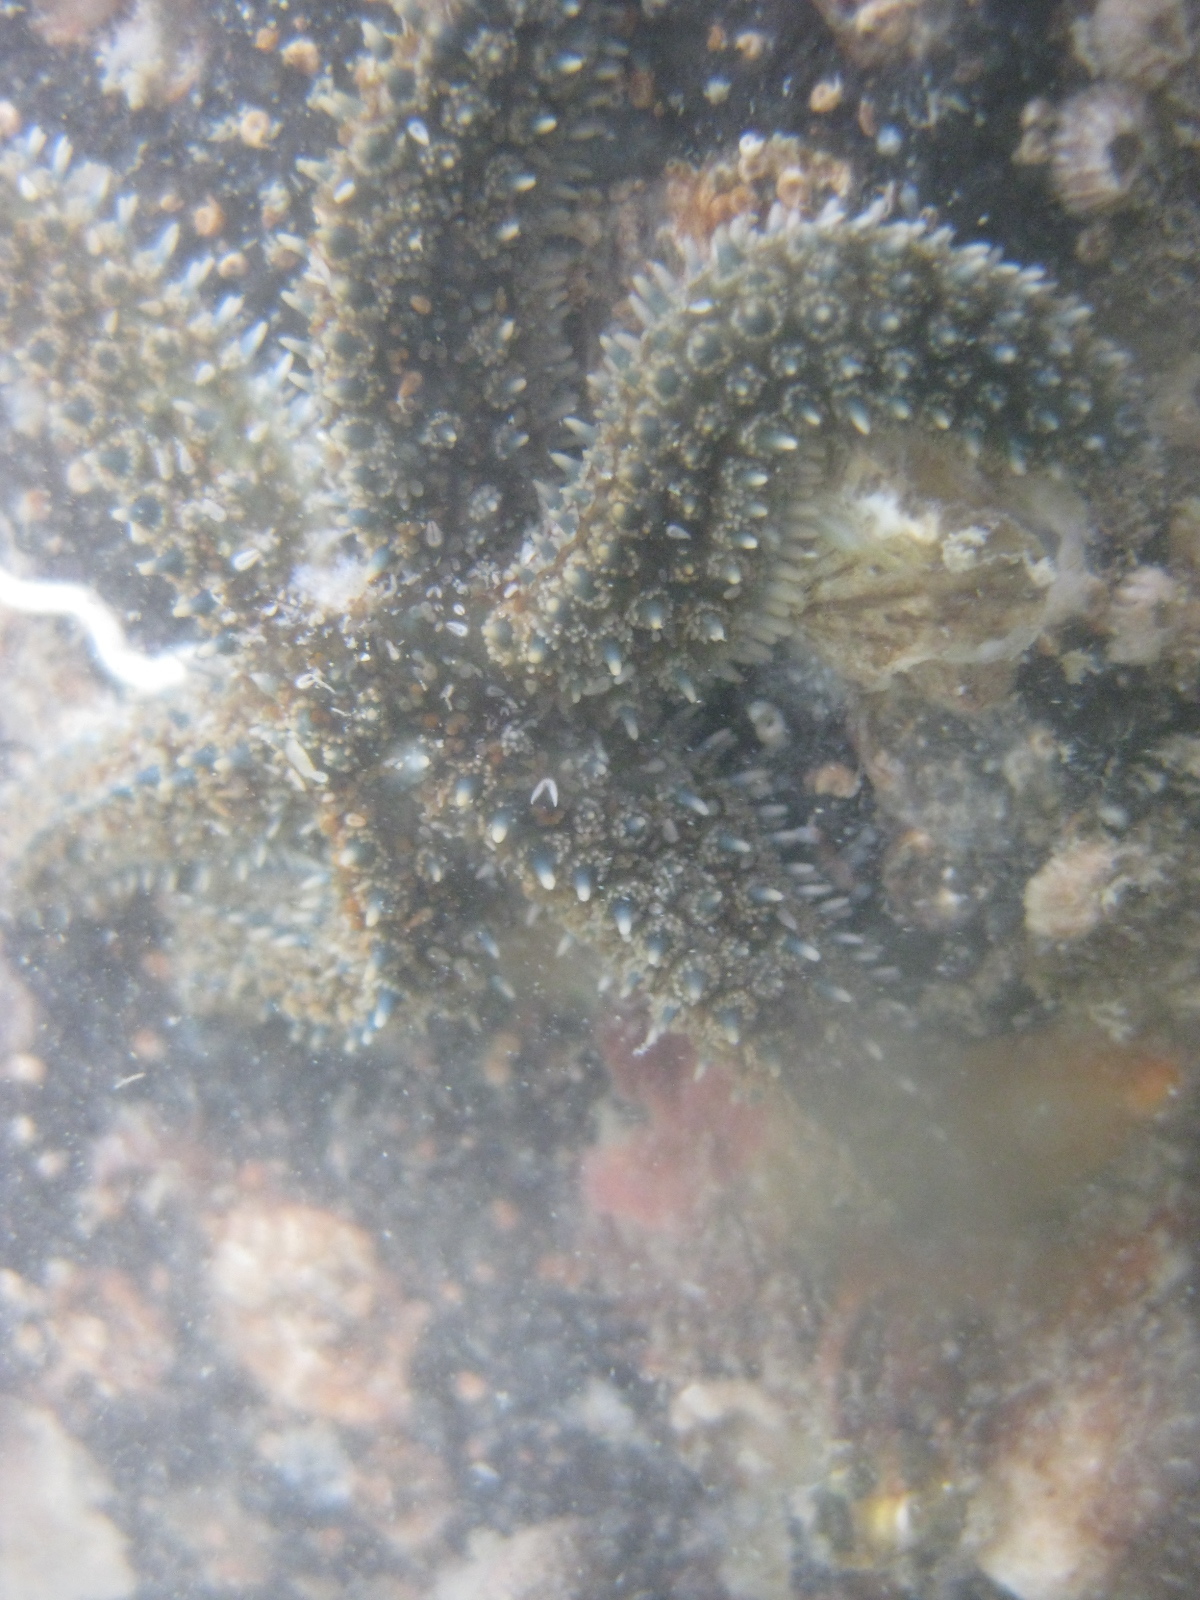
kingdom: Animalia
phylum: Echinodermata
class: Asteroidea
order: Forcipulatida
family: Asteriidae
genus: Coscinasterias
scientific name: Coscinasterias muricata
